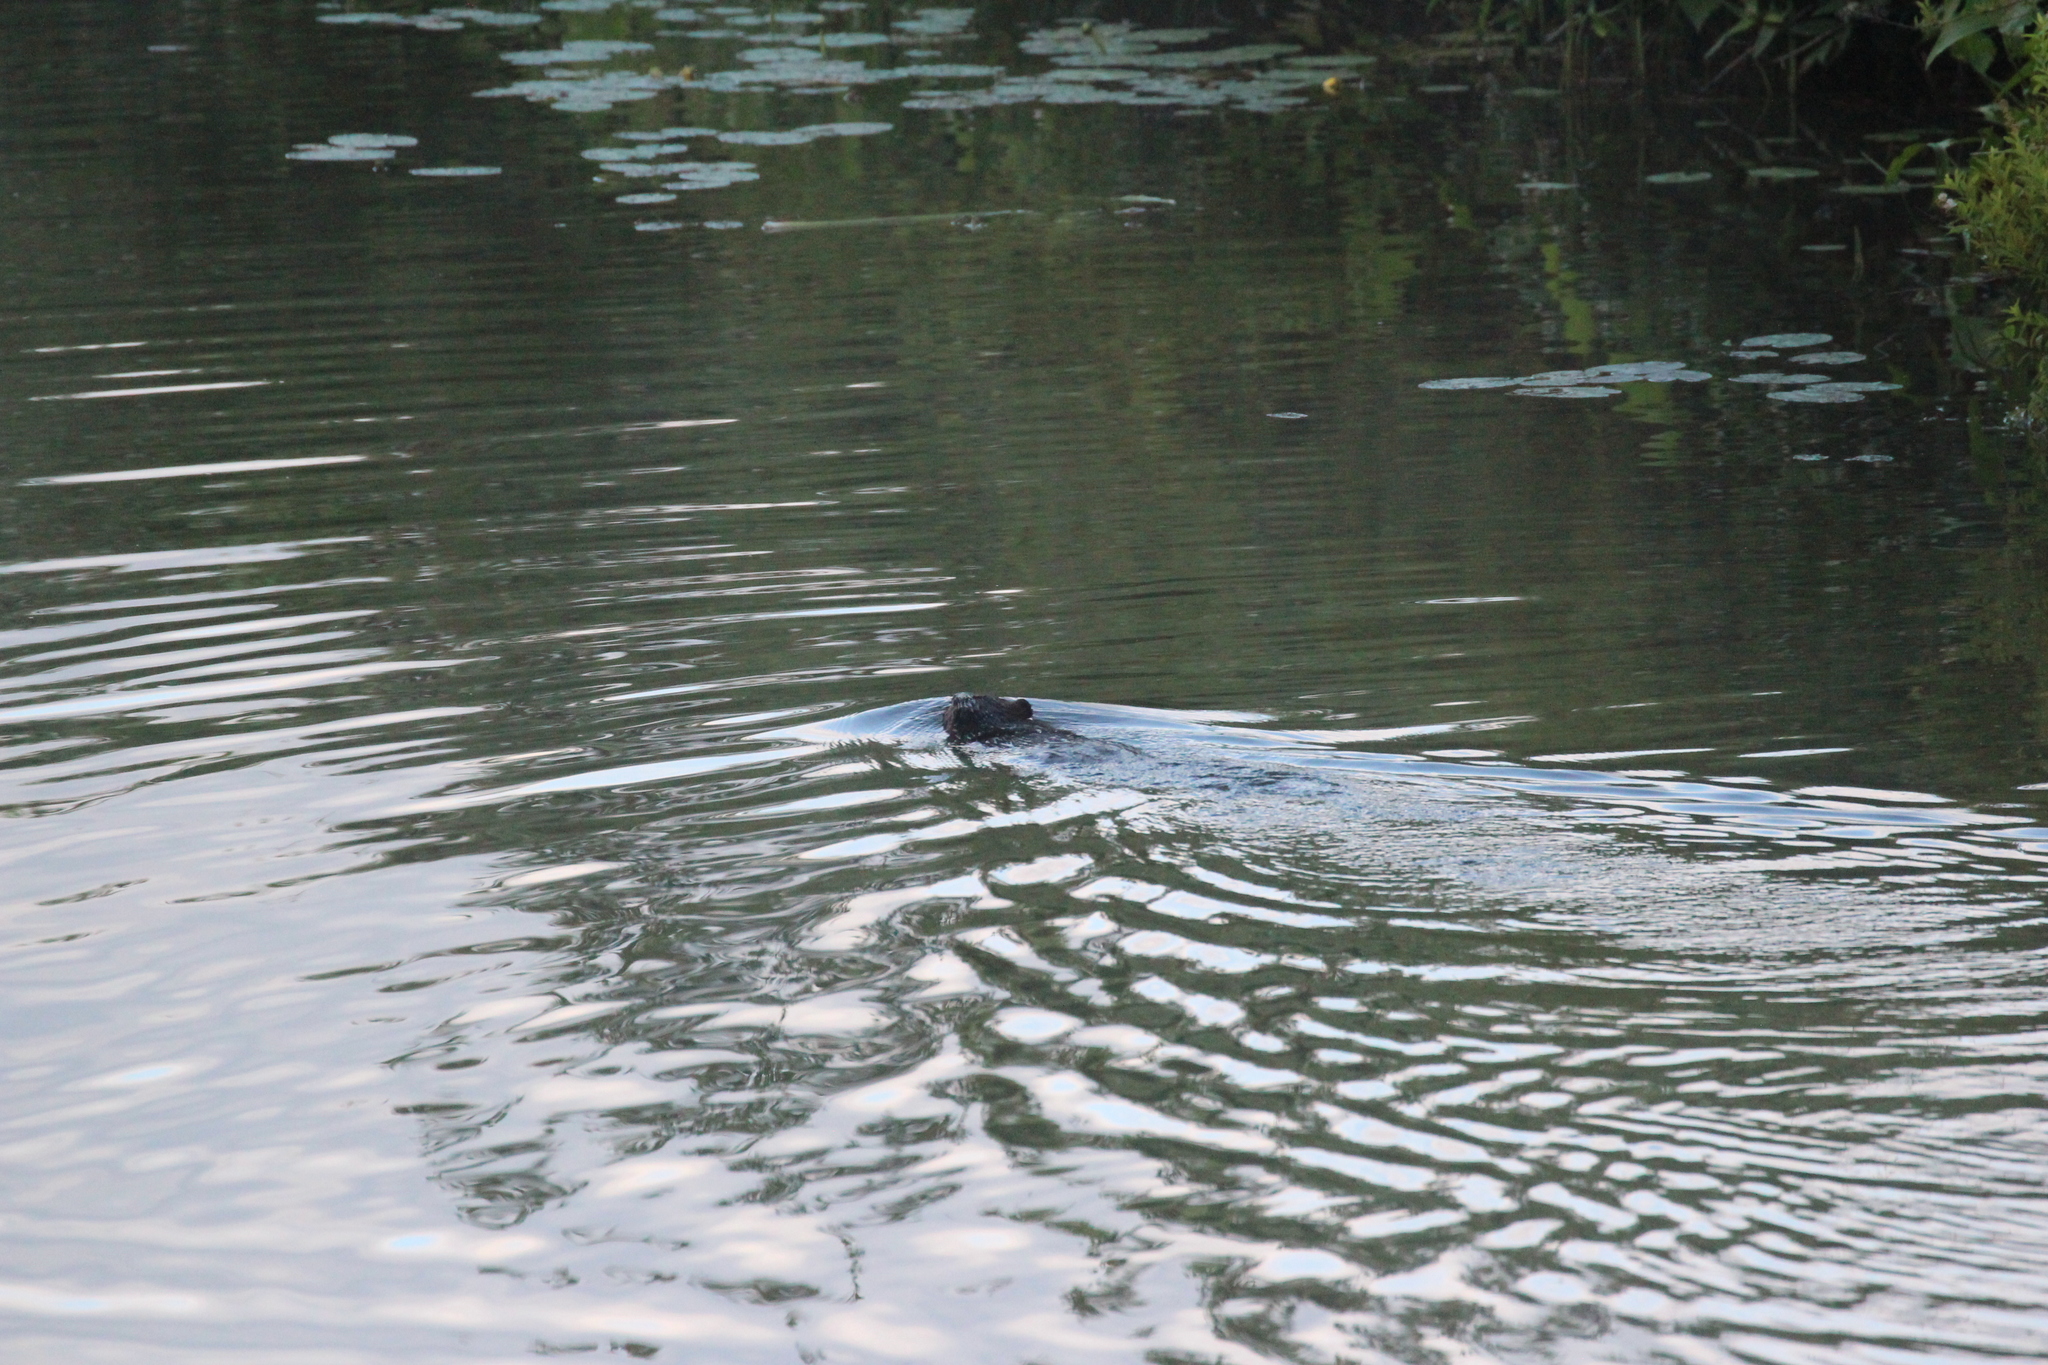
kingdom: Animalia
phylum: Chordata
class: Mammalia
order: Rodentia
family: Castoridae
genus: Castor
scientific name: Castor canadensis
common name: American beaver
